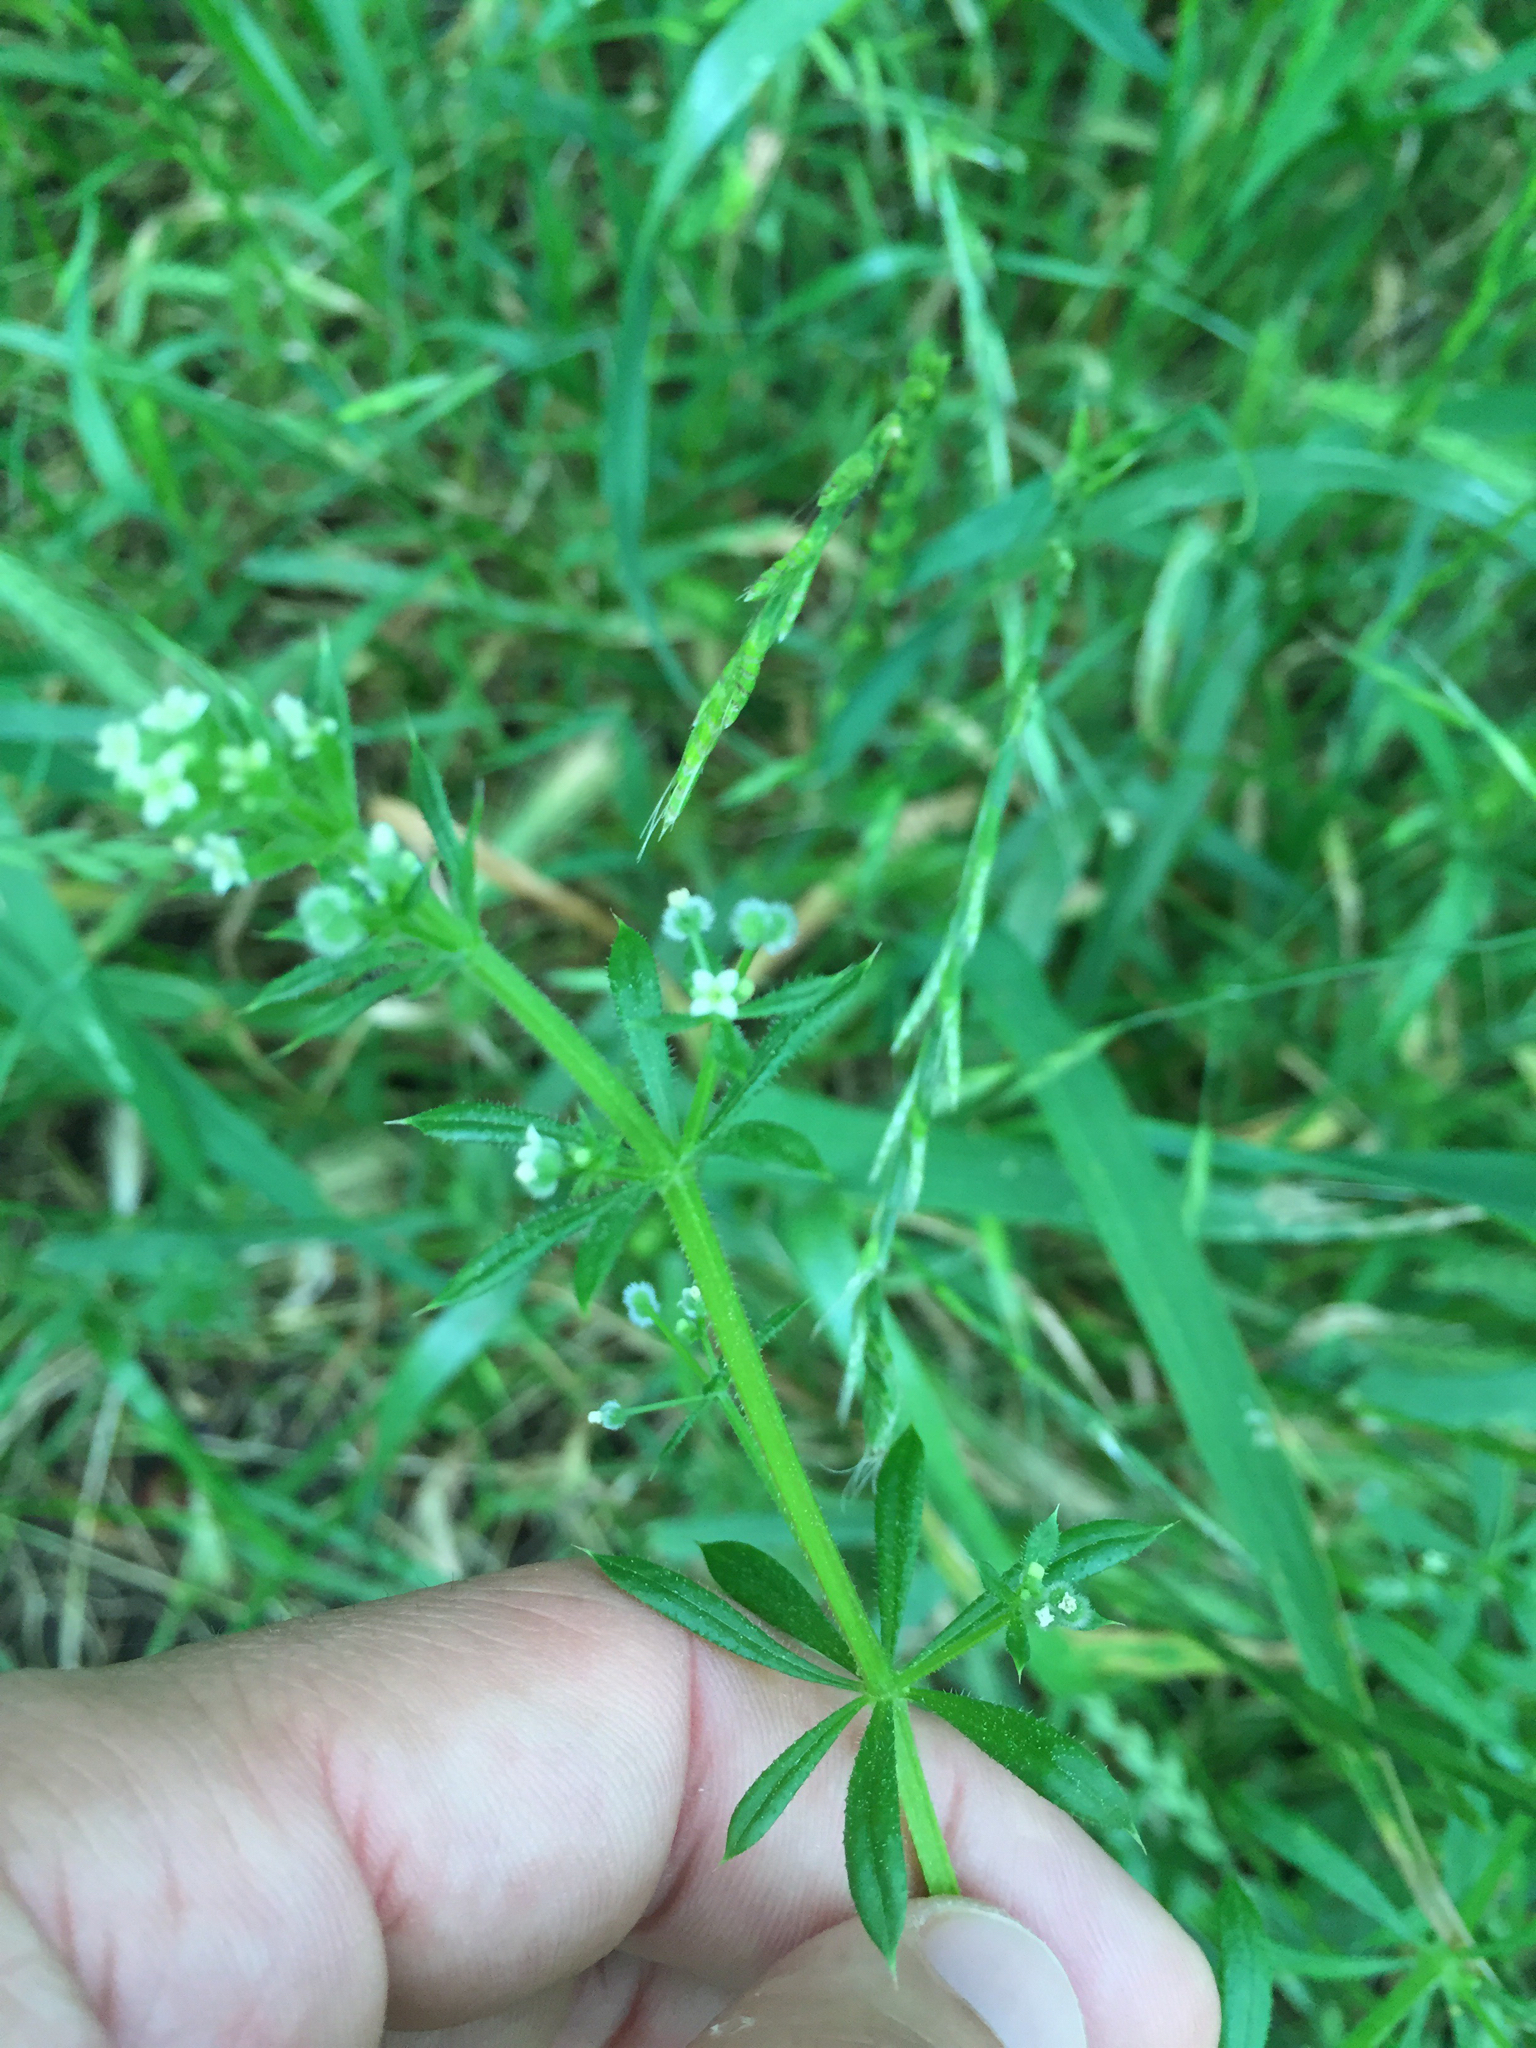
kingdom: Plantae
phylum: Tracheophyta
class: Magnoliopsida
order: Gentianales
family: Rubiaceae
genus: Galium
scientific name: Galium aparine
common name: Cleavers
